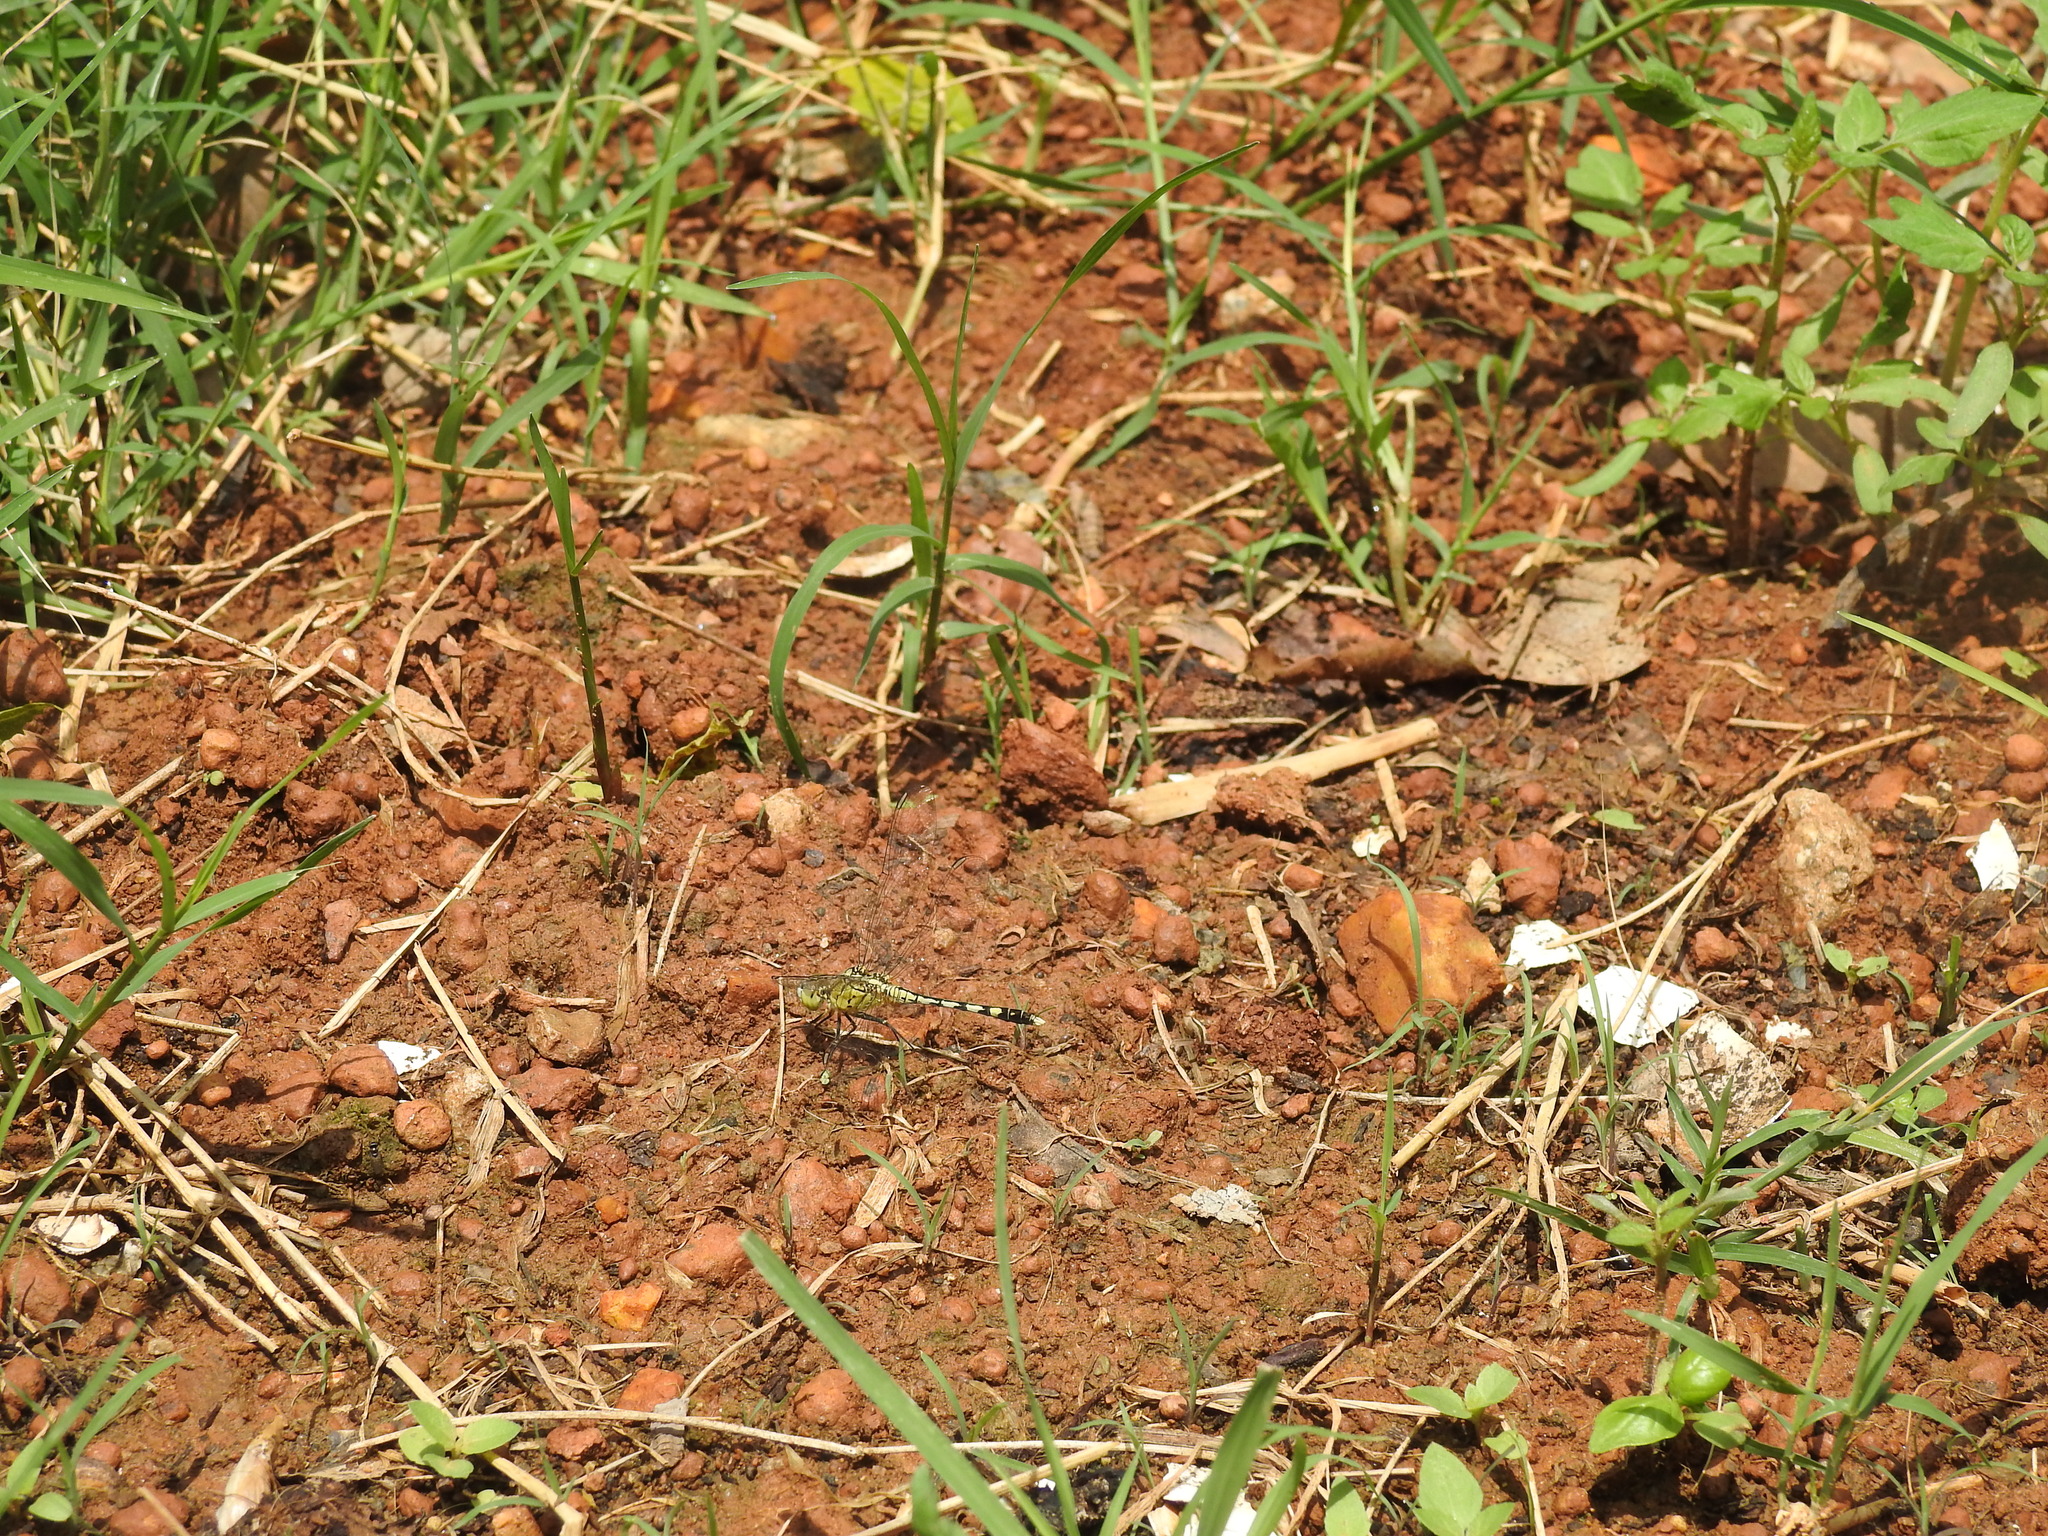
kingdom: Animalia
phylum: Arthropoda
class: Insecta
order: Odonata
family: Libellulidae
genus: Diplacodes
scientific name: Diplacodes trivialis
